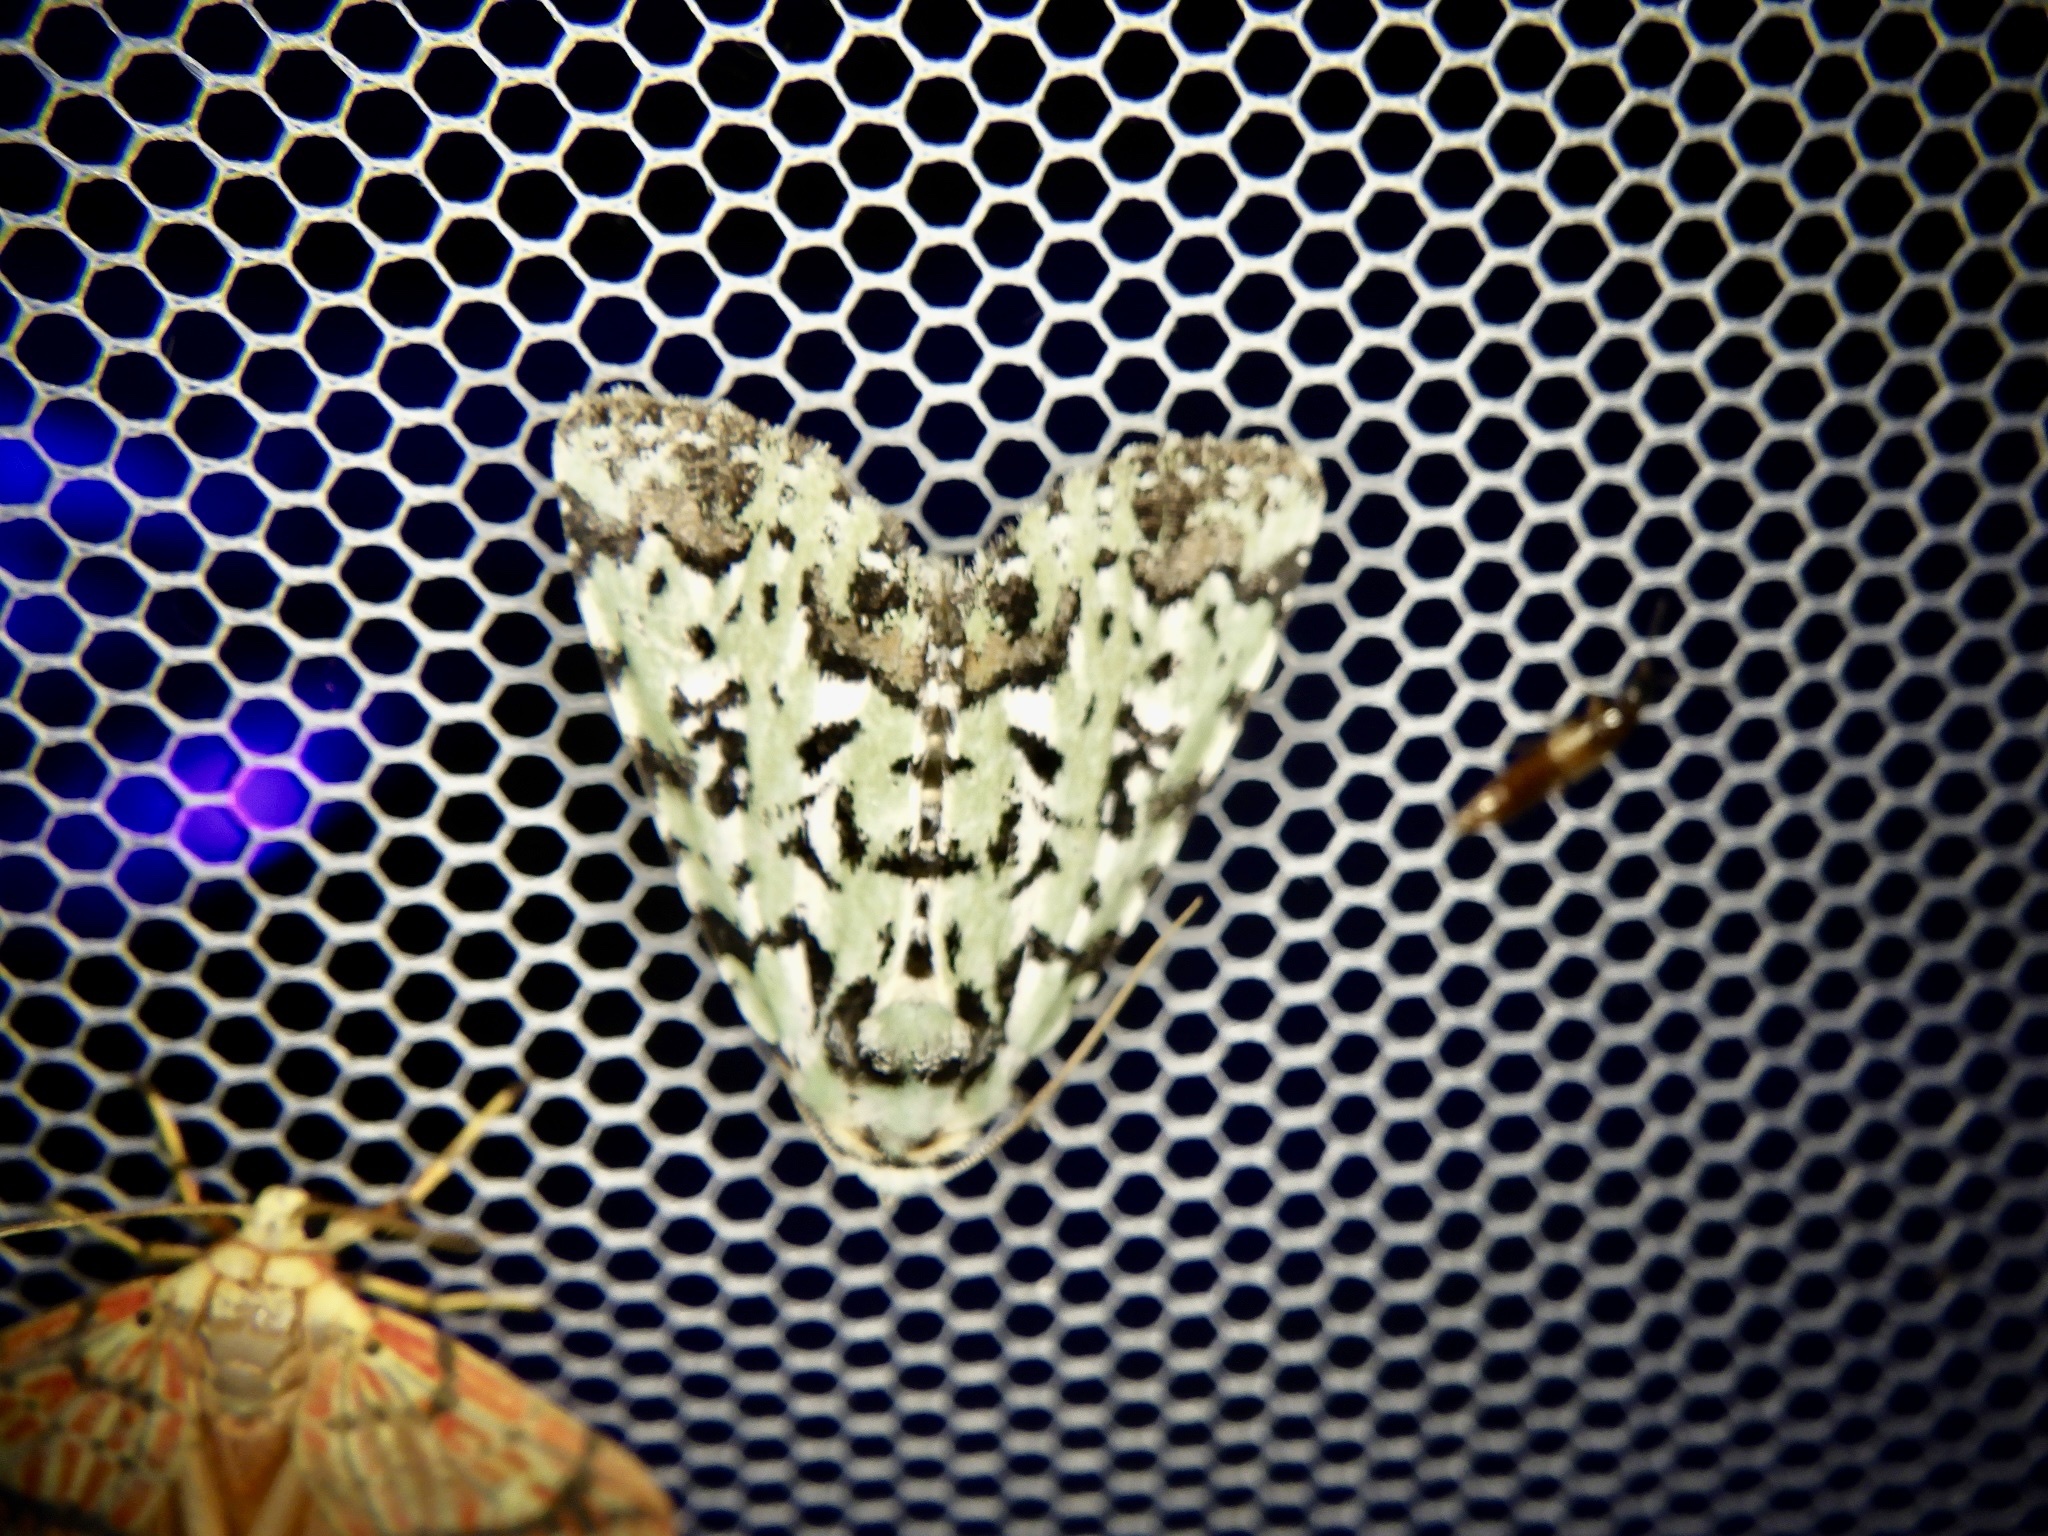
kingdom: Animalia
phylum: Arthropoda
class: Insecta
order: Lepidoptera
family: Noctuidae
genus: Moma
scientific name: Moma alpium
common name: Scarce merveille du jour
